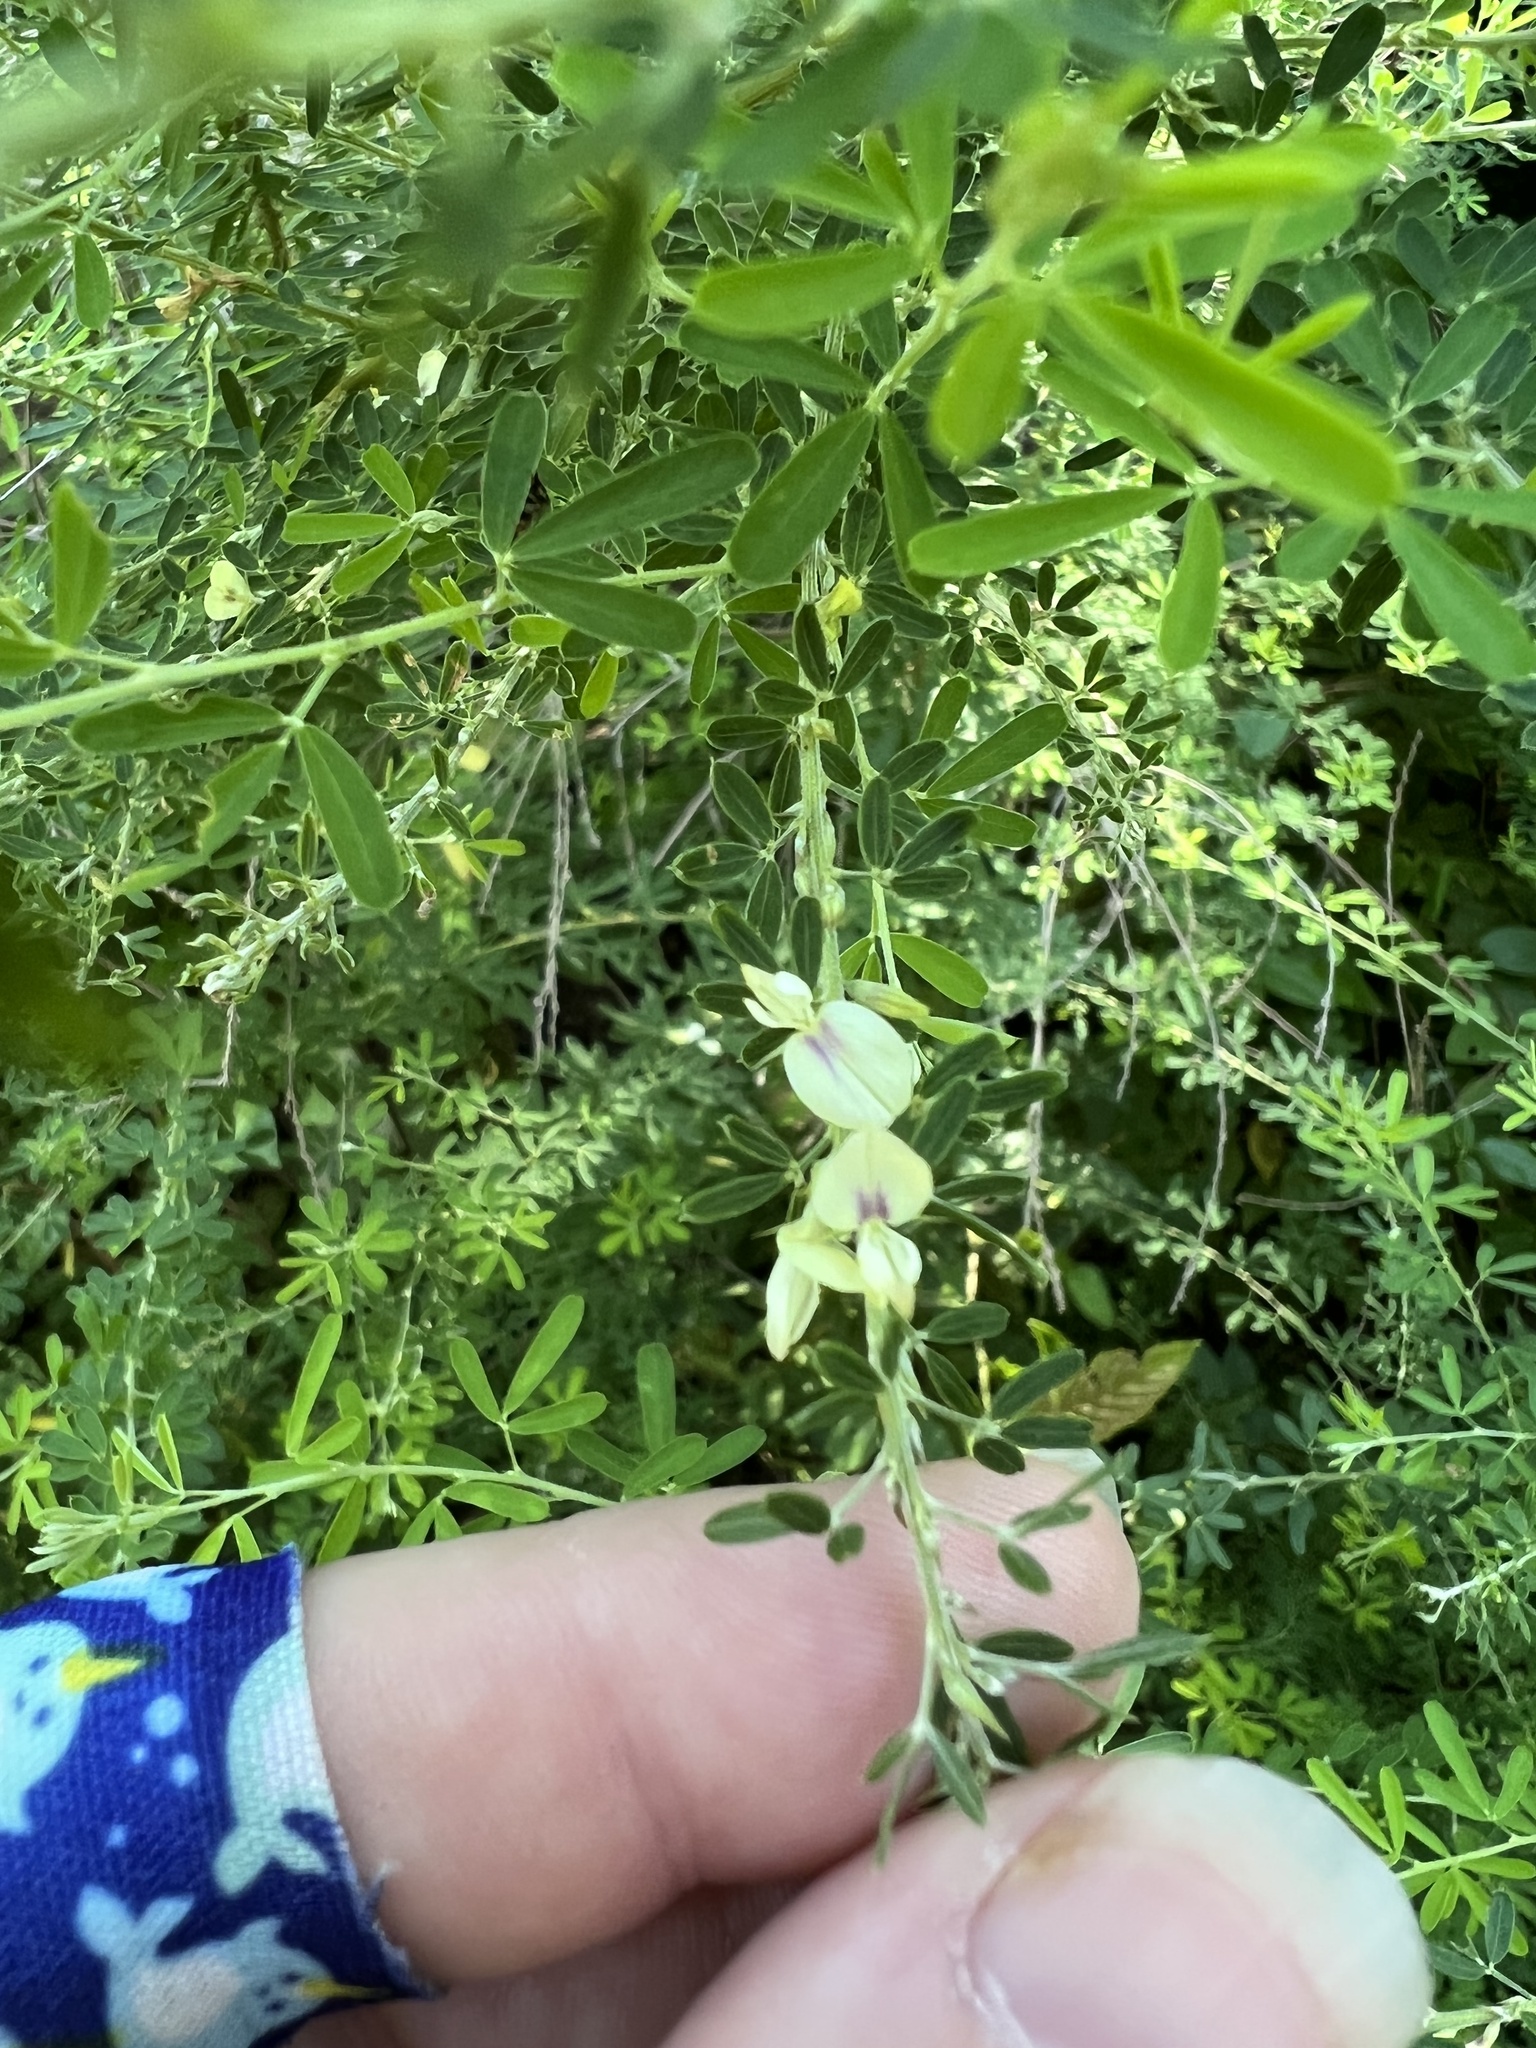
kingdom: Plantae
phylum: Tracheophyta
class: Magnoliopsida
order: Fabales
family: Fabaceae
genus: Lespedeza
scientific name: Lespedeza cuneata
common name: Chinese bush-clover
